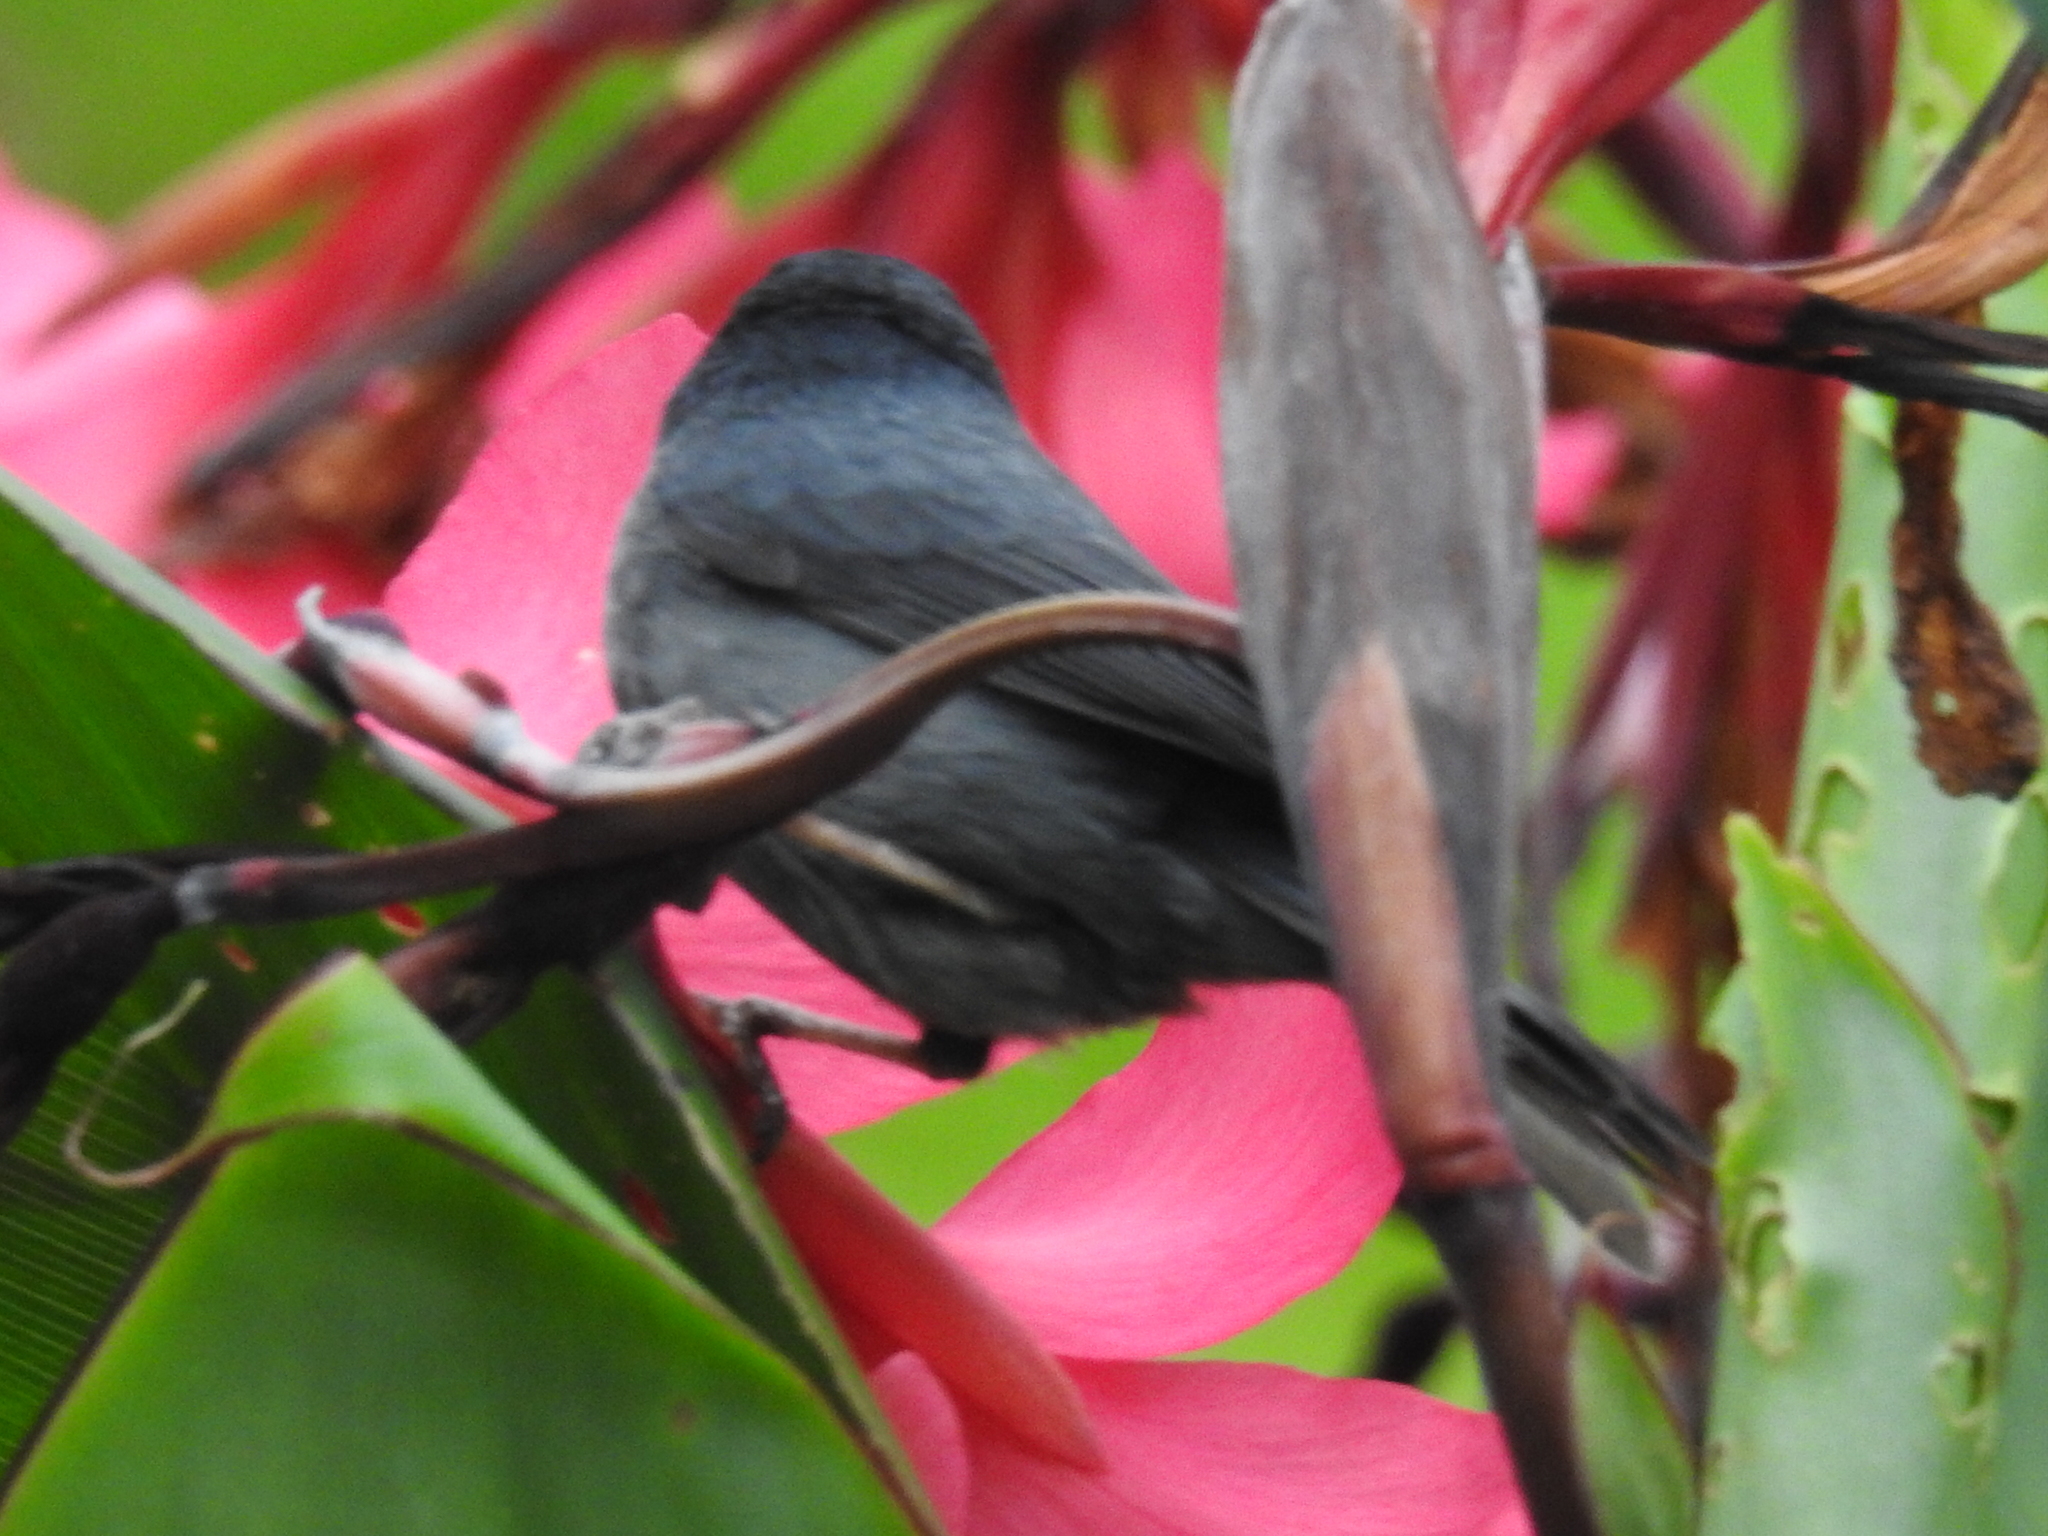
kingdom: Animalia
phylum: Chordata
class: Aves
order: Passeriformes
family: Thraupidae
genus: Diglossa
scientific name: Diglossa plumbea
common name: Slaty flowerpiercer
